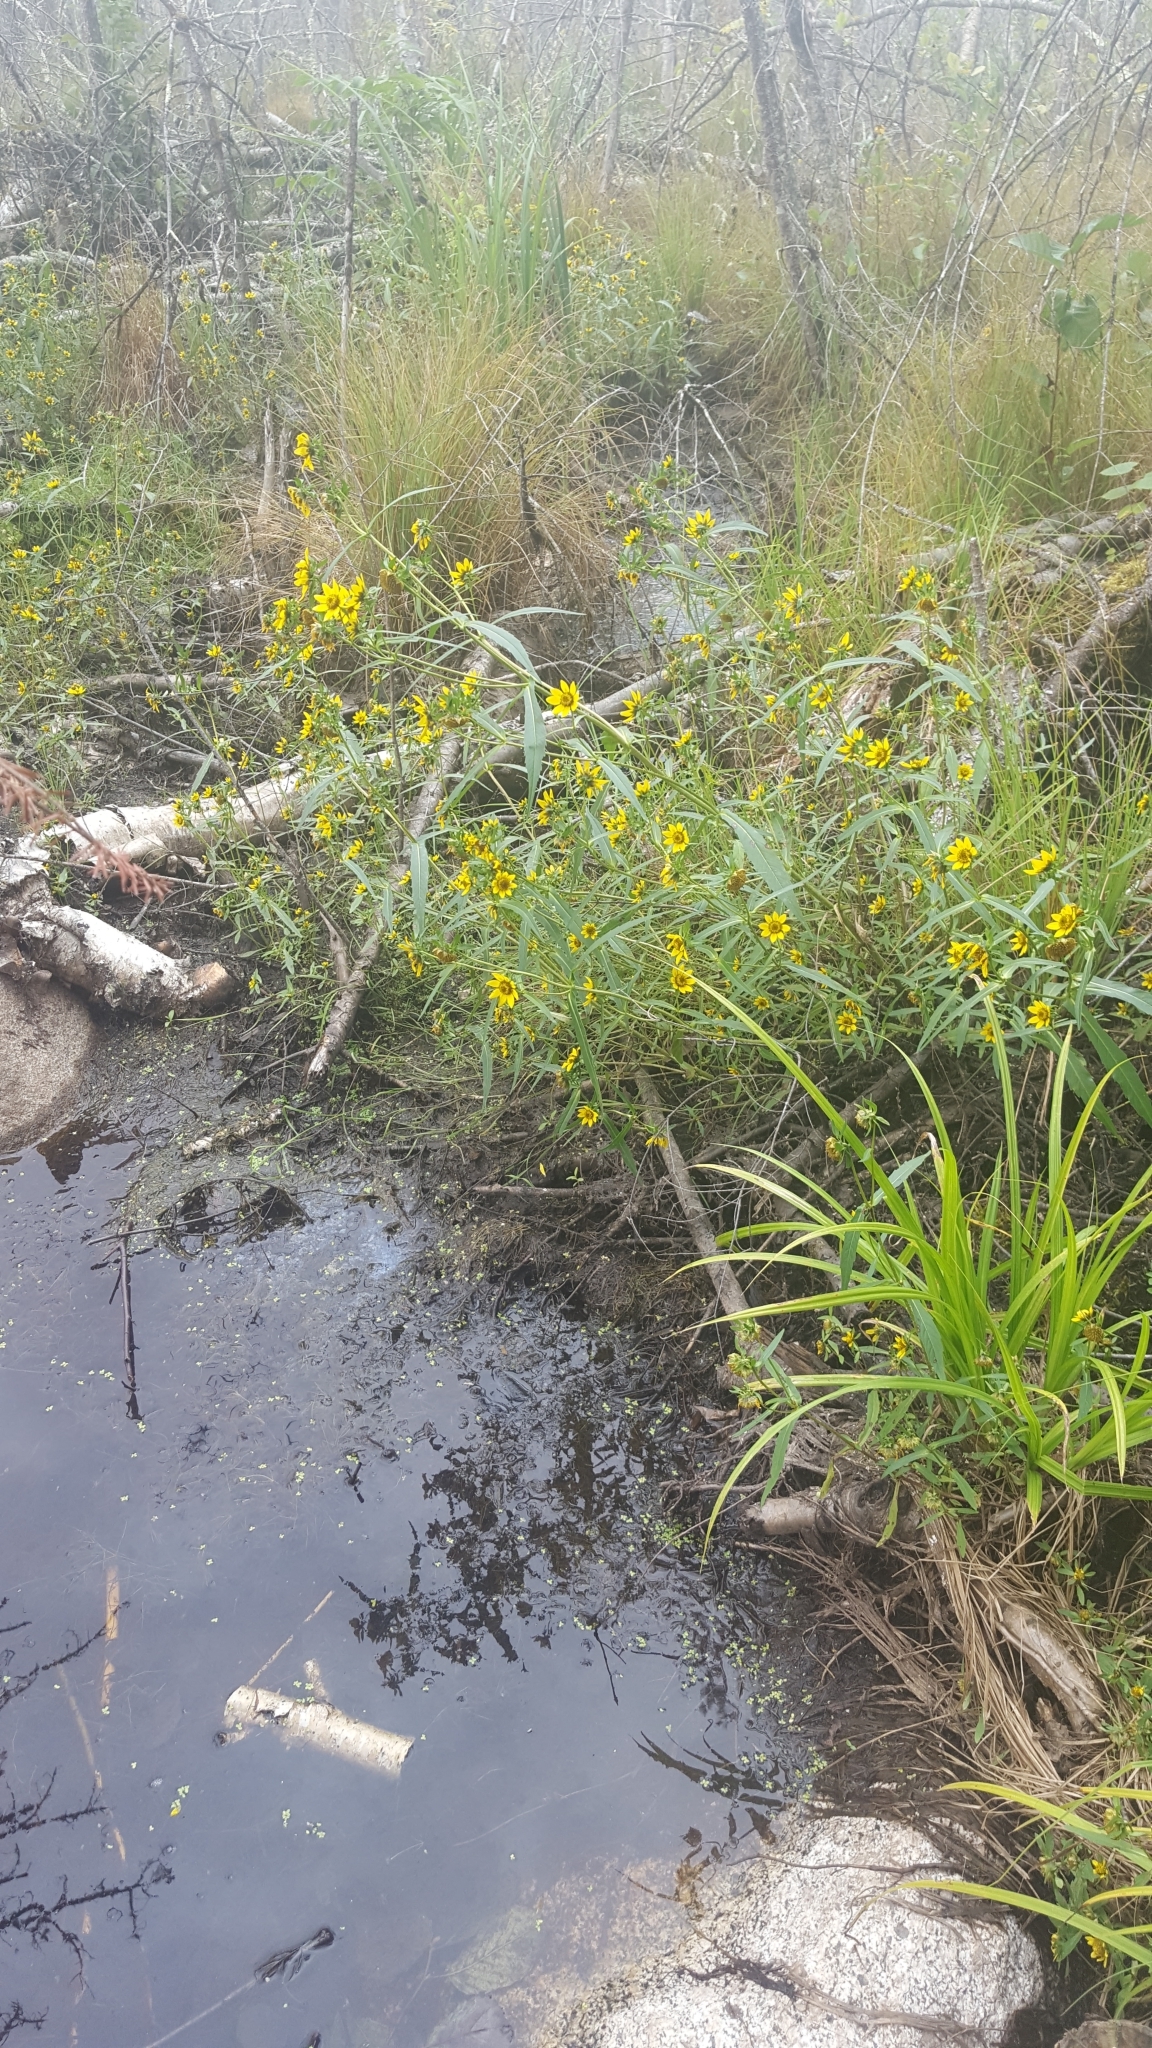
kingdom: Plantae
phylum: Tracheophyta
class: Magnoliopsida
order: Asterales
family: Asteraceae
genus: Bidens
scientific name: Bidens cernua
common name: Nodding bur-marigold
